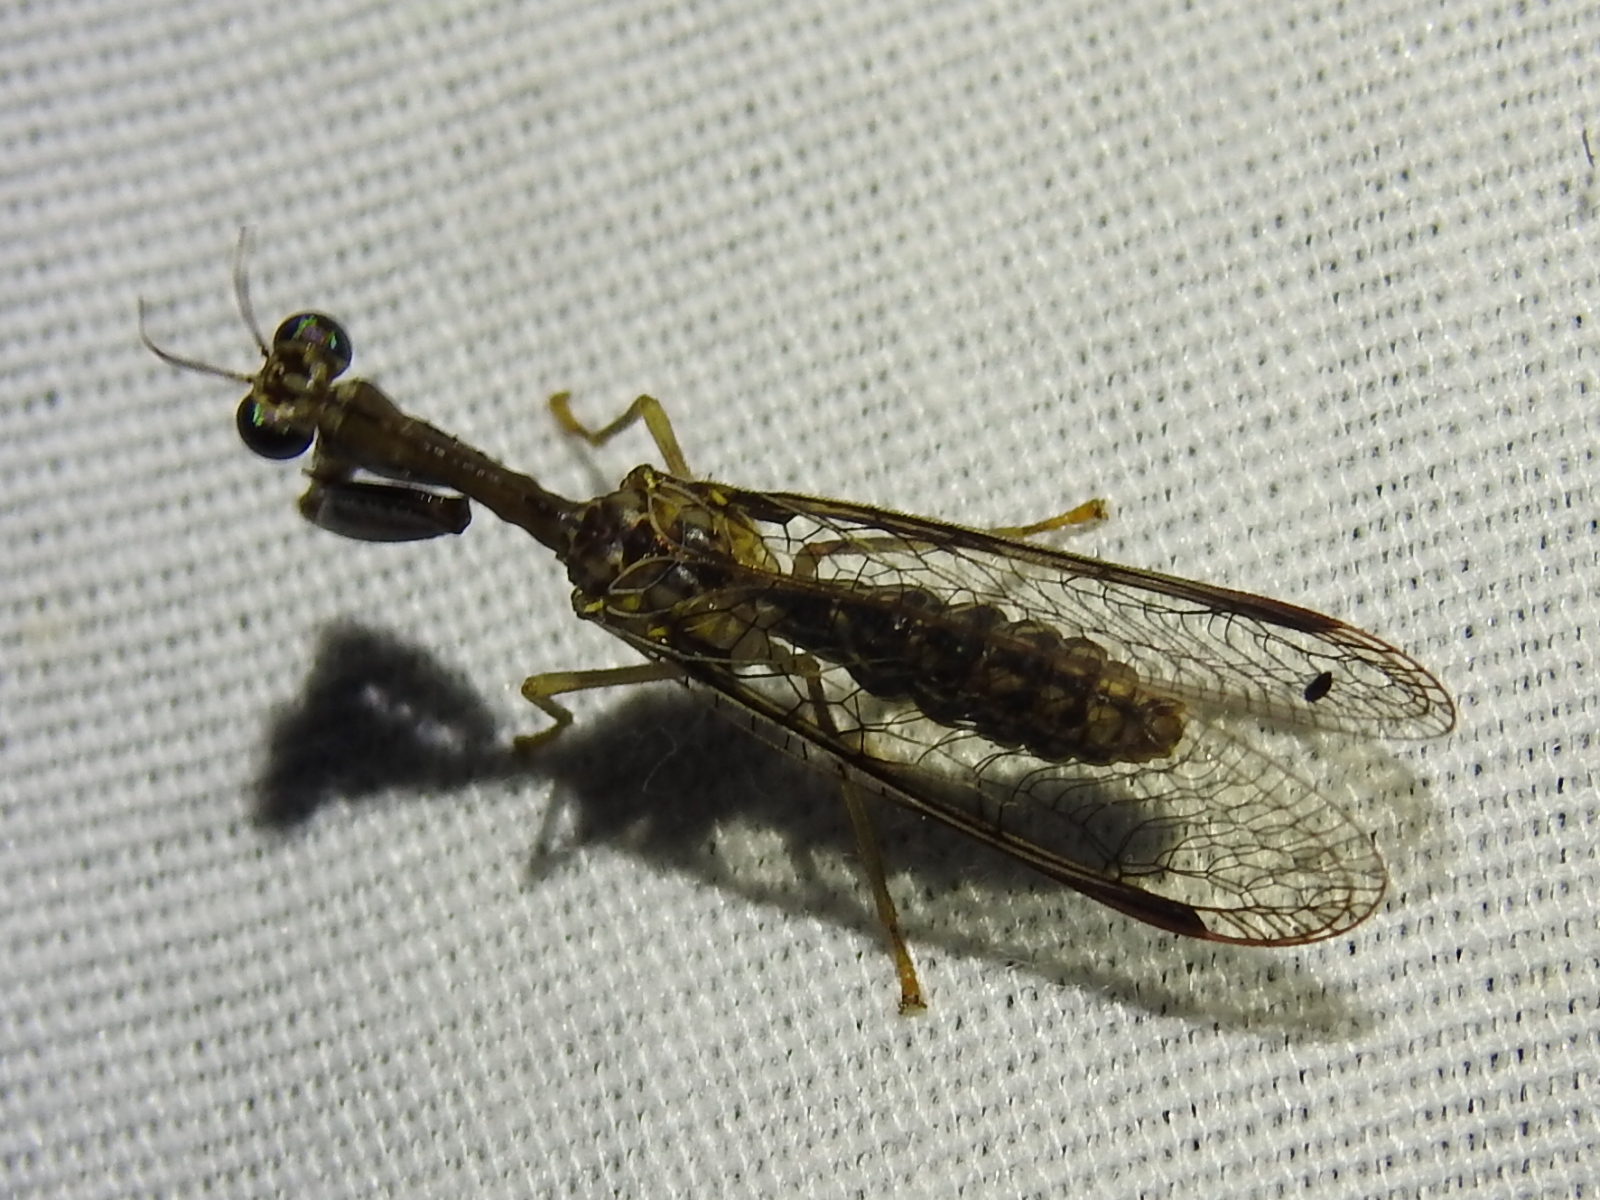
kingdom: Animalia
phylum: Arthropoda
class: Insecta
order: Neuroptera
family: Mantispidae
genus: Dicromantispa
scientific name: Dicromantispa sayi
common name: Say's mantidfly
